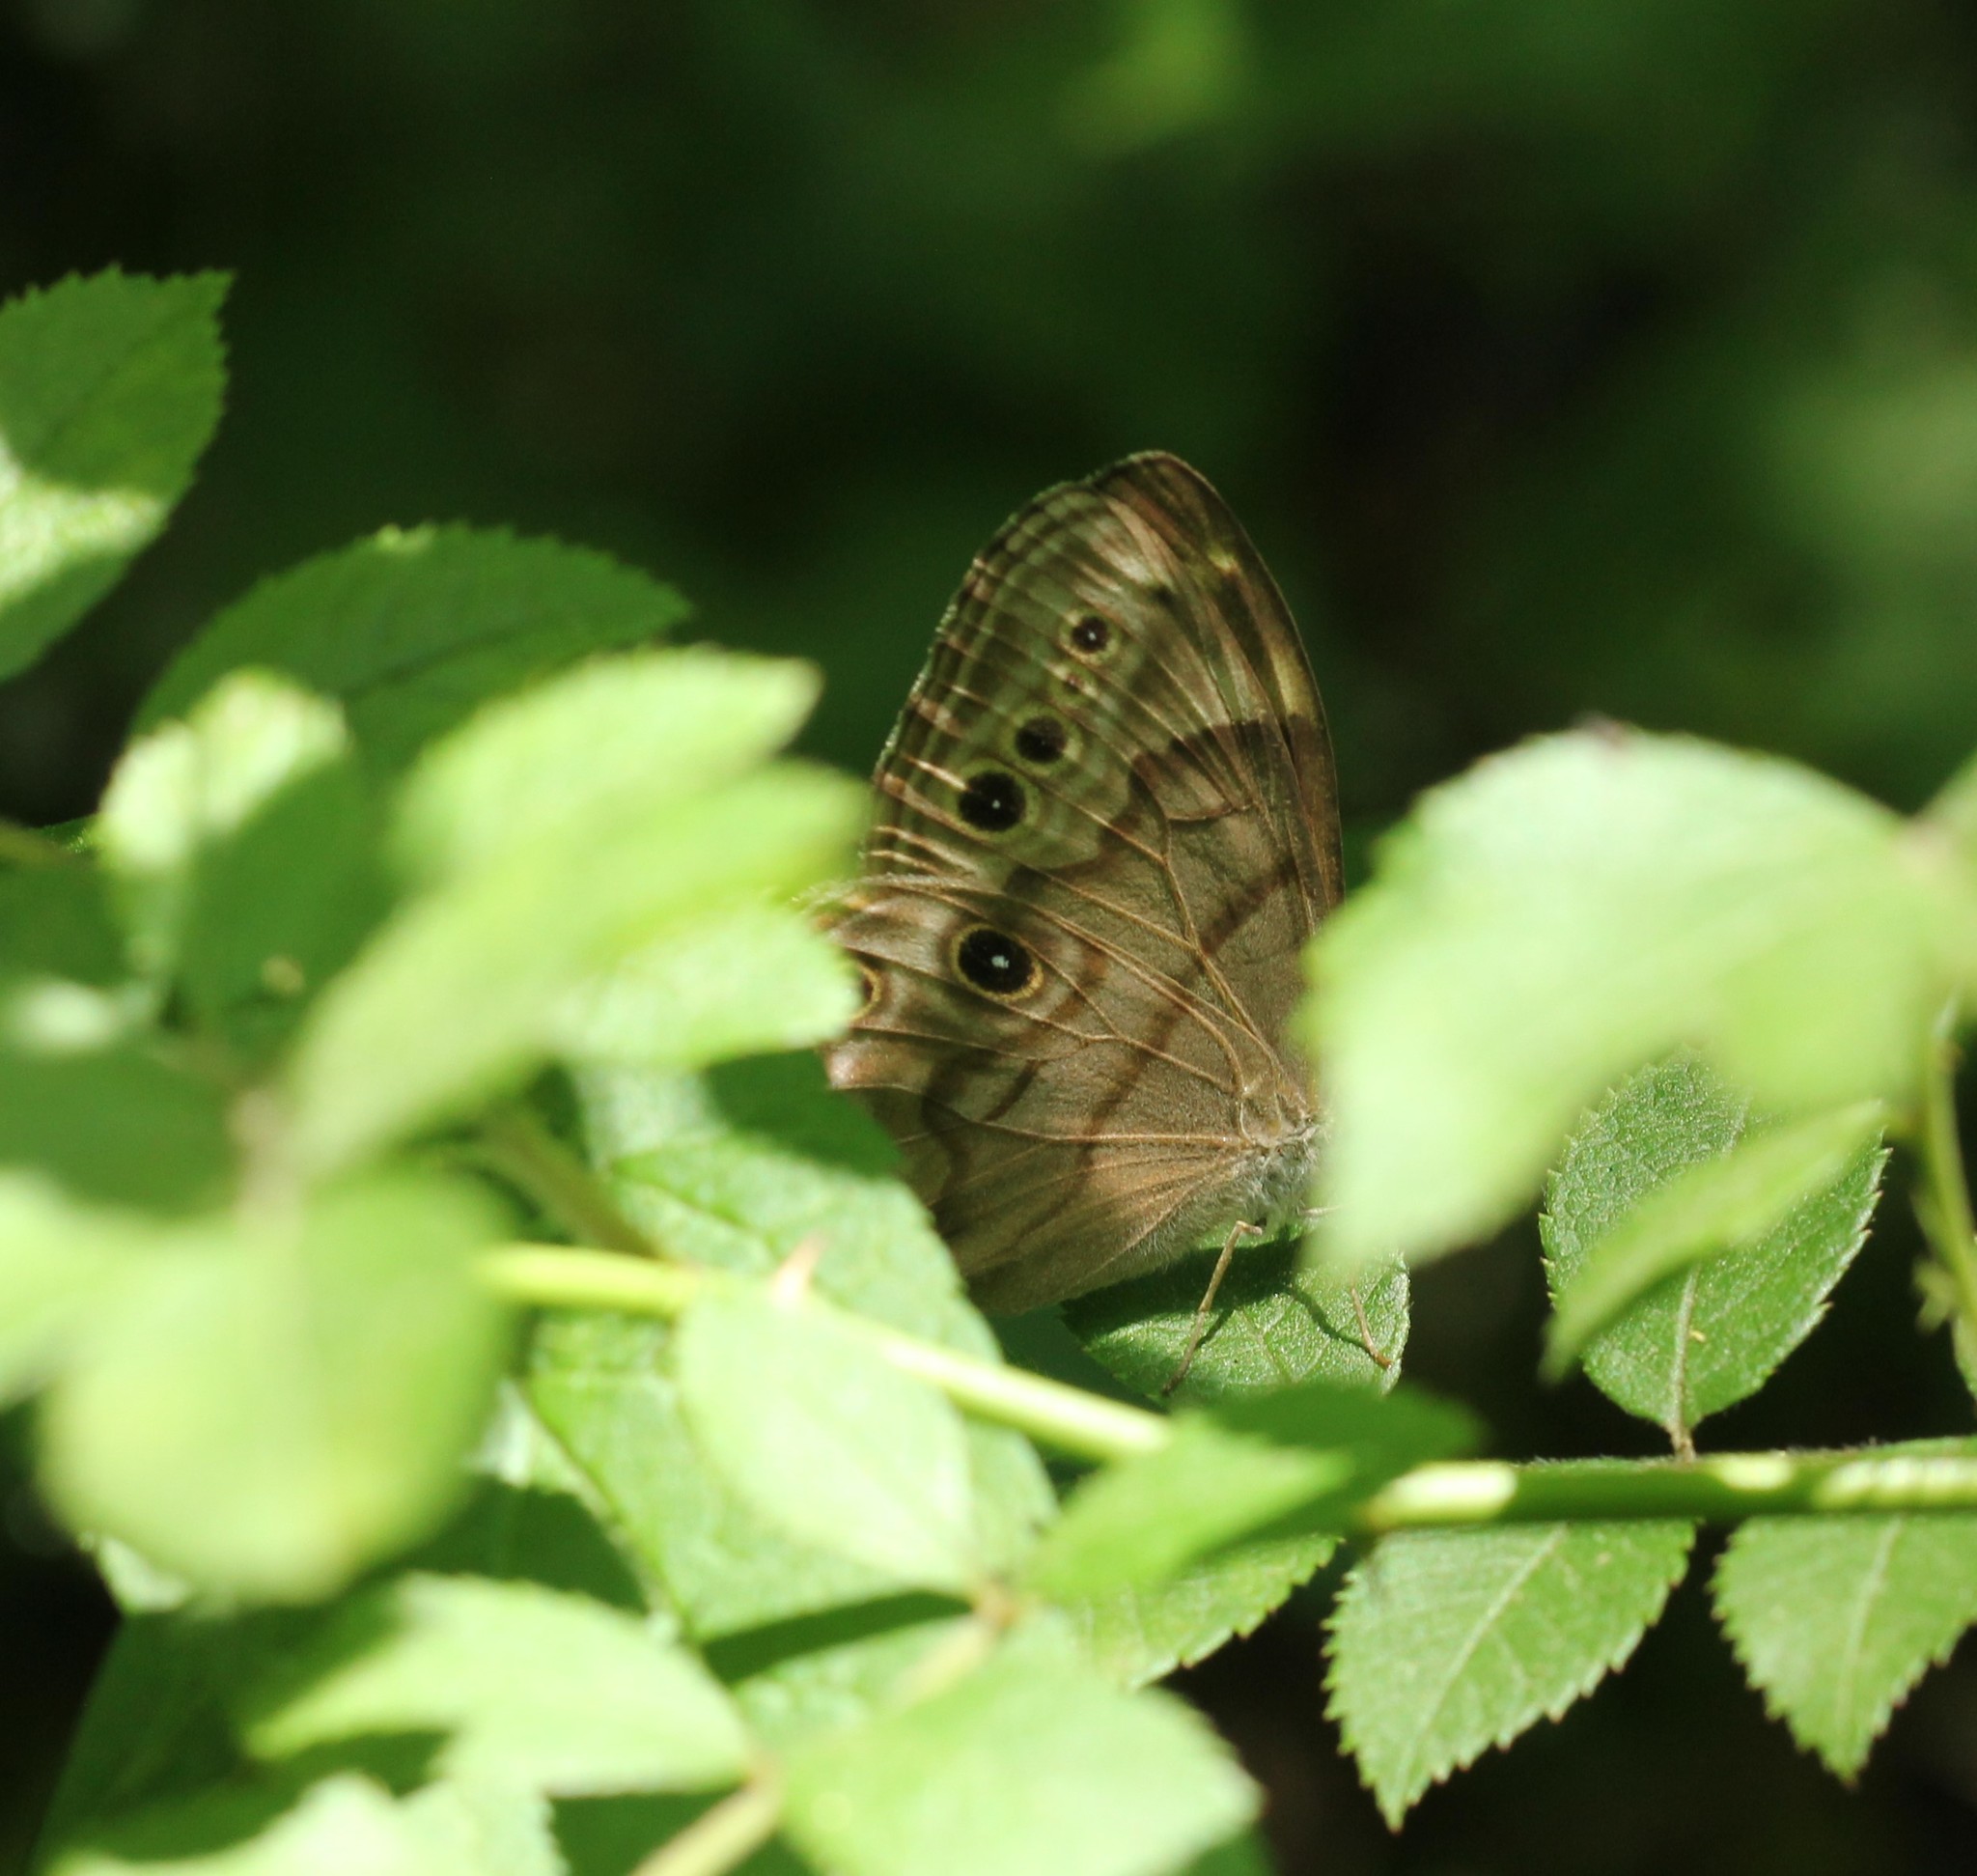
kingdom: Animalia
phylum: Arthropoda
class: Insecta
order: Lepidoptera
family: Nymphalidae
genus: Lethe
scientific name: Lethe anthedon
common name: Northern pearly-eye
